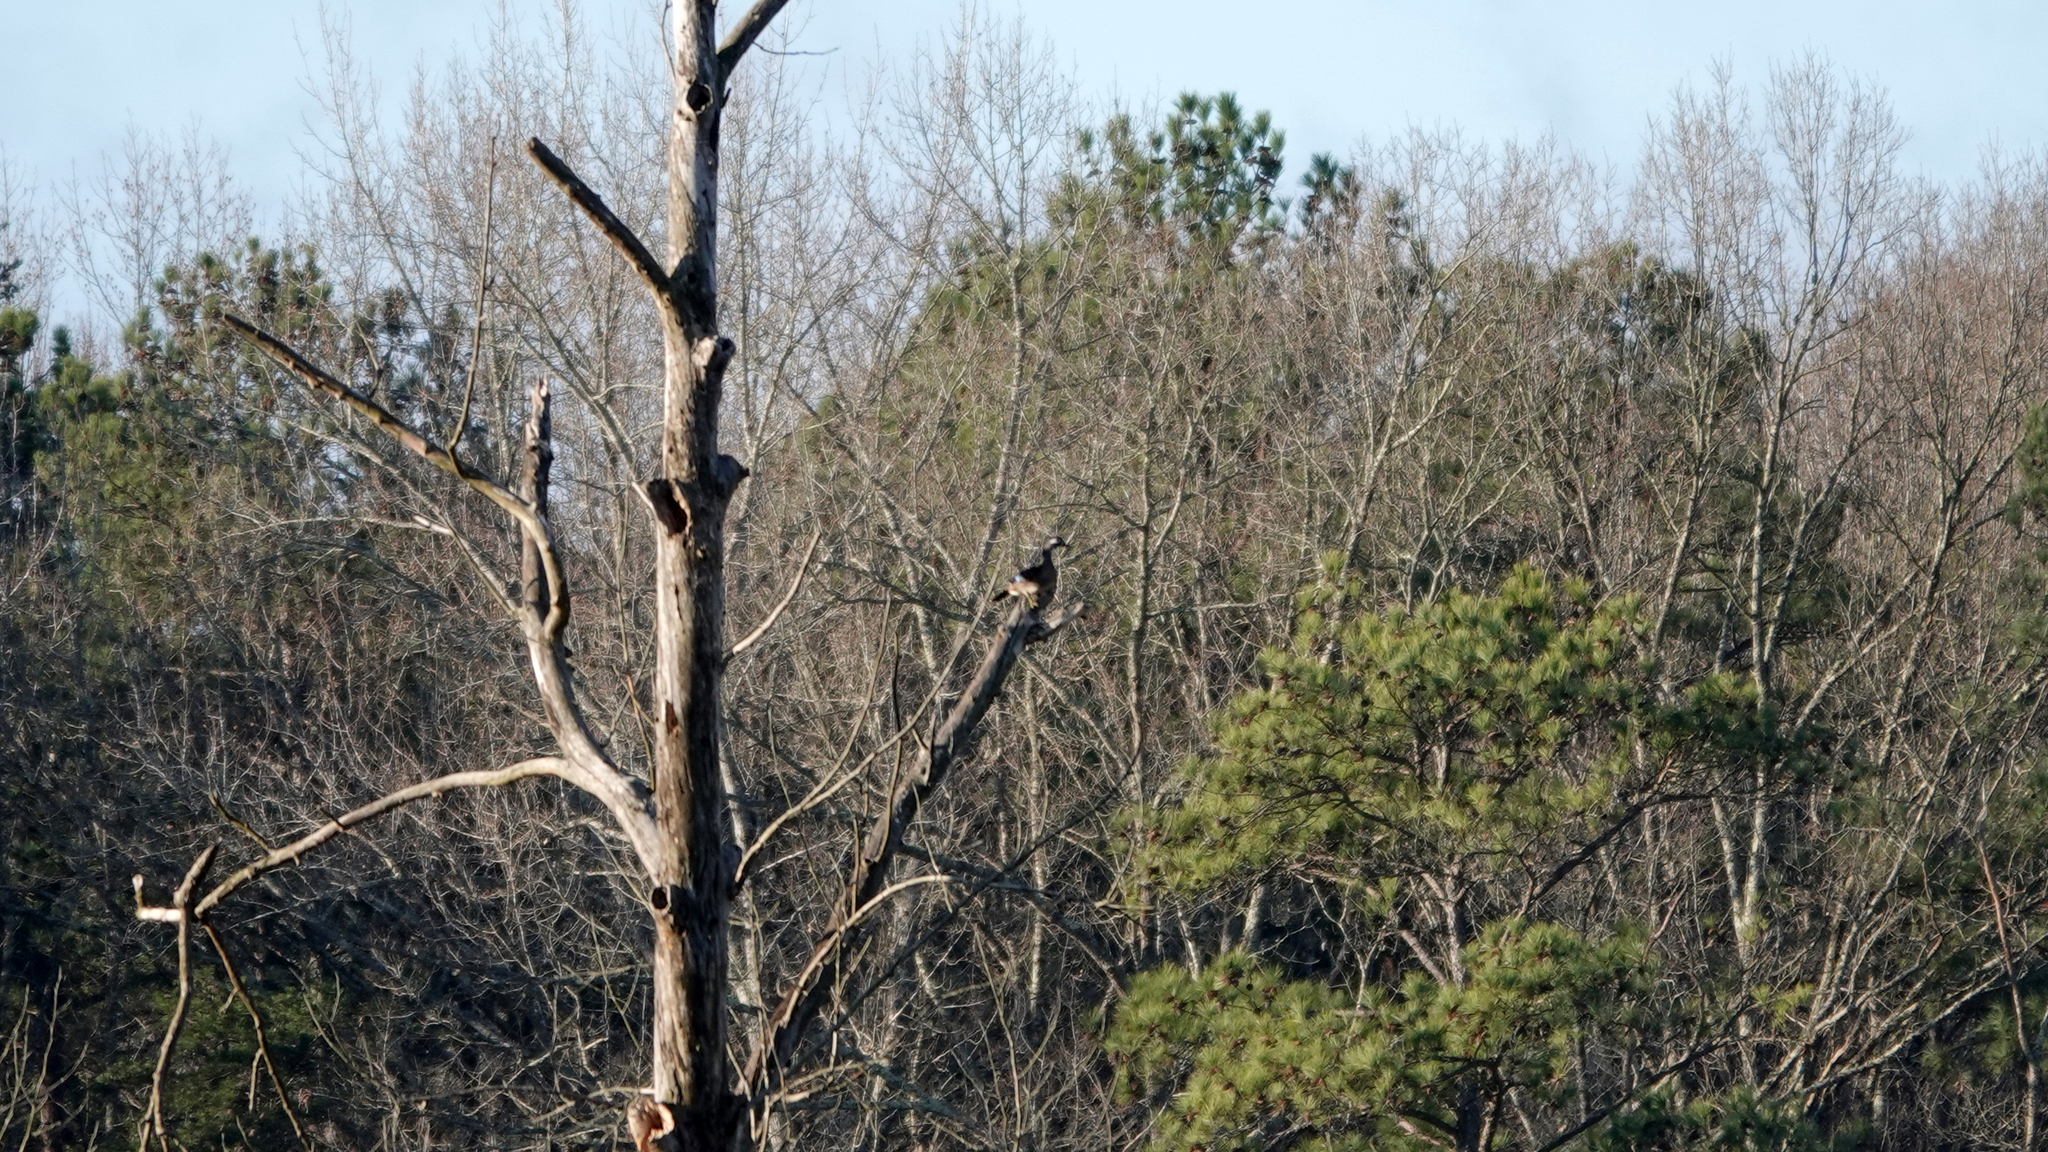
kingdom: Animalia
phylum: Chordata
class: Aves
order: Anseriformes
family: Anatidae
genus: Aix
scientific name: Aix sponsa
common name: Wood duck
